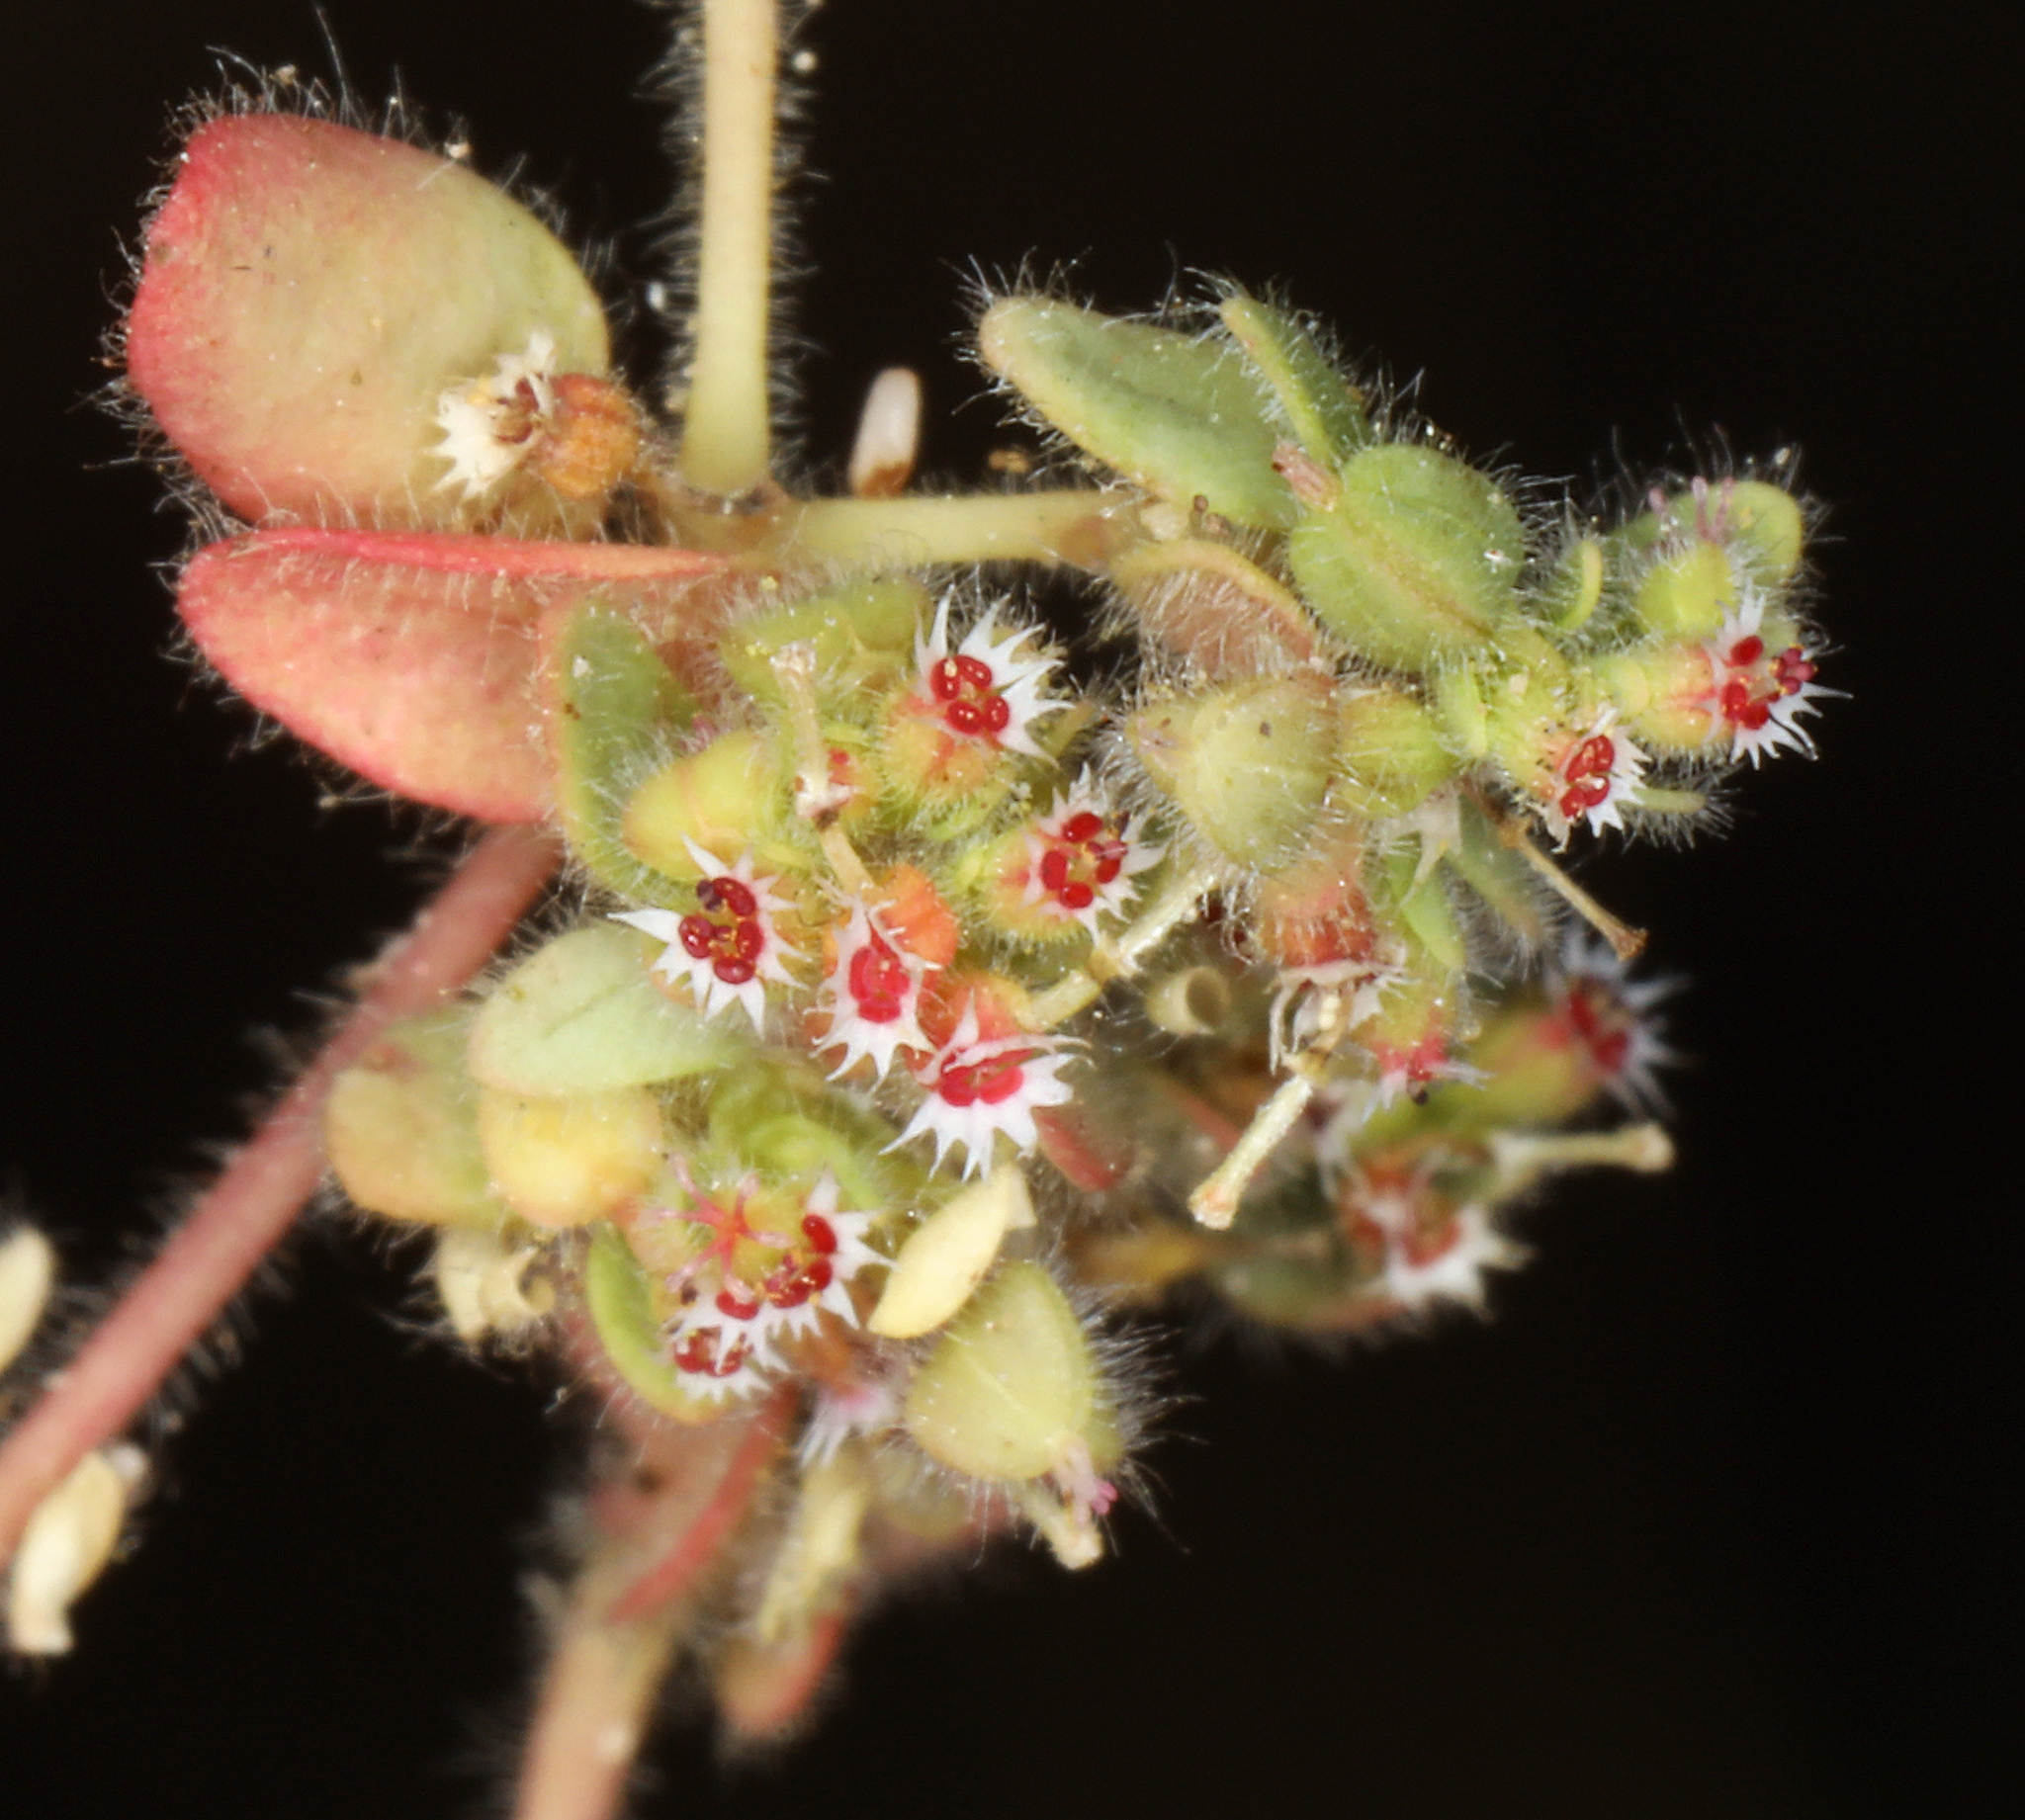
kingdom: Plantae
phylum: Tracheophyta
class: Magnoliopsida
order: Malpighiales
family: Euphorbiaceae
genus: Euphorbia
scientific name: Euphorbia setiloba
